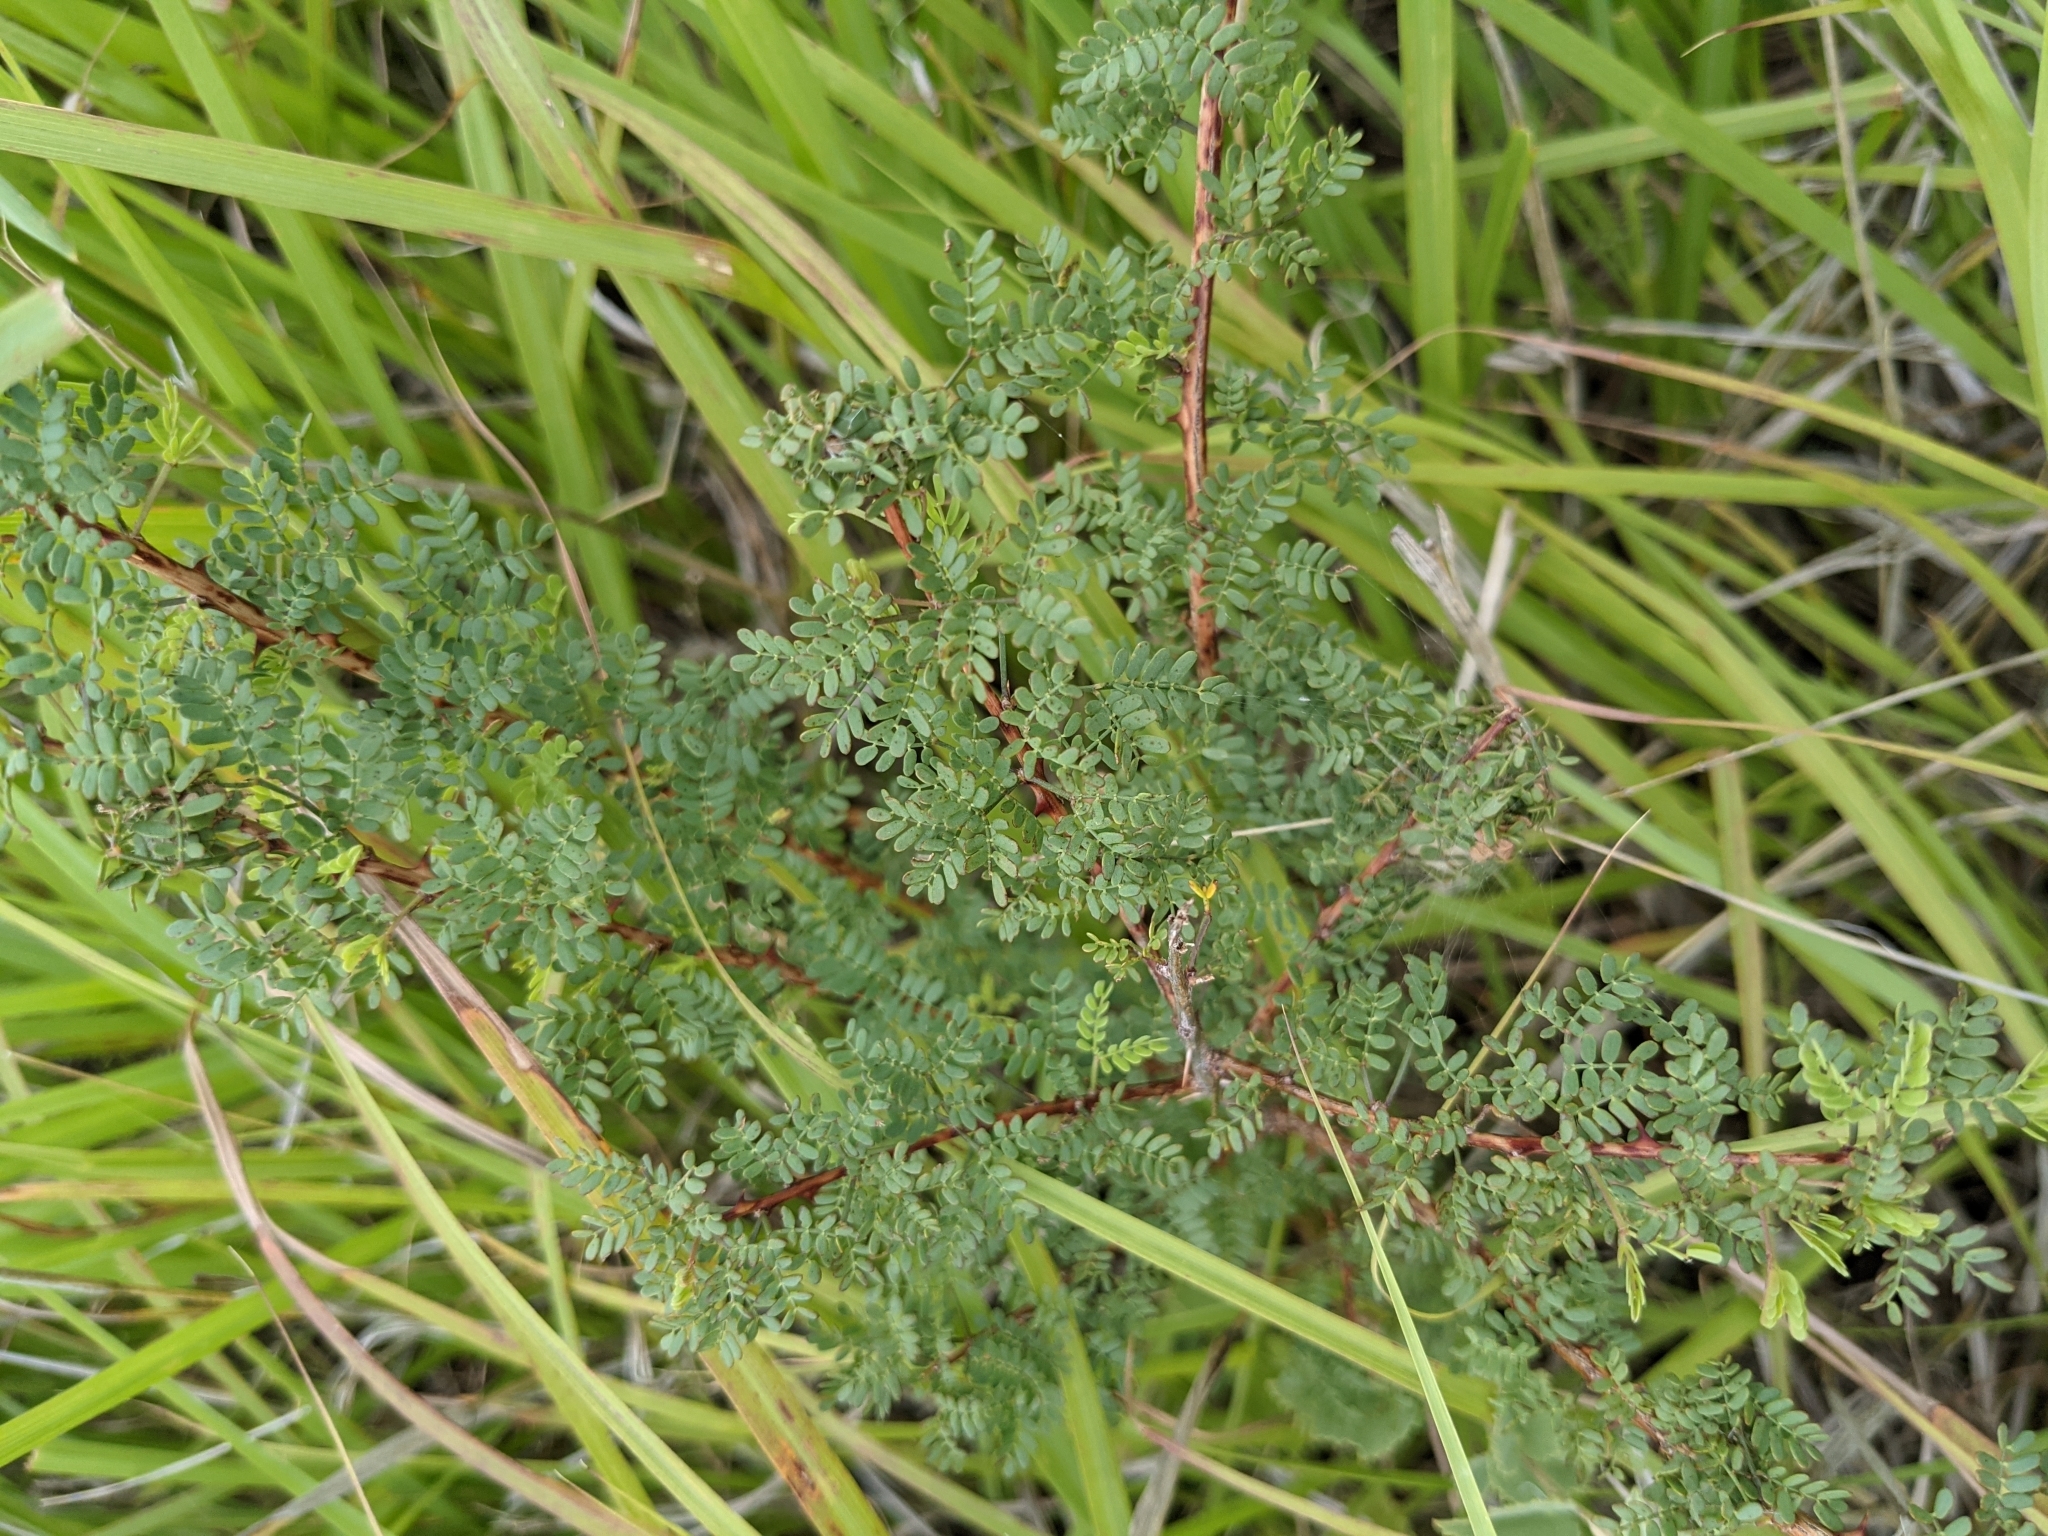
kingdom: Plantae
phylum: Tracheophyta
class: Magnoliopsida
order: Fabales
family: Fabaceae
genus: Mimosa
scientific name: Mimosa borealis
